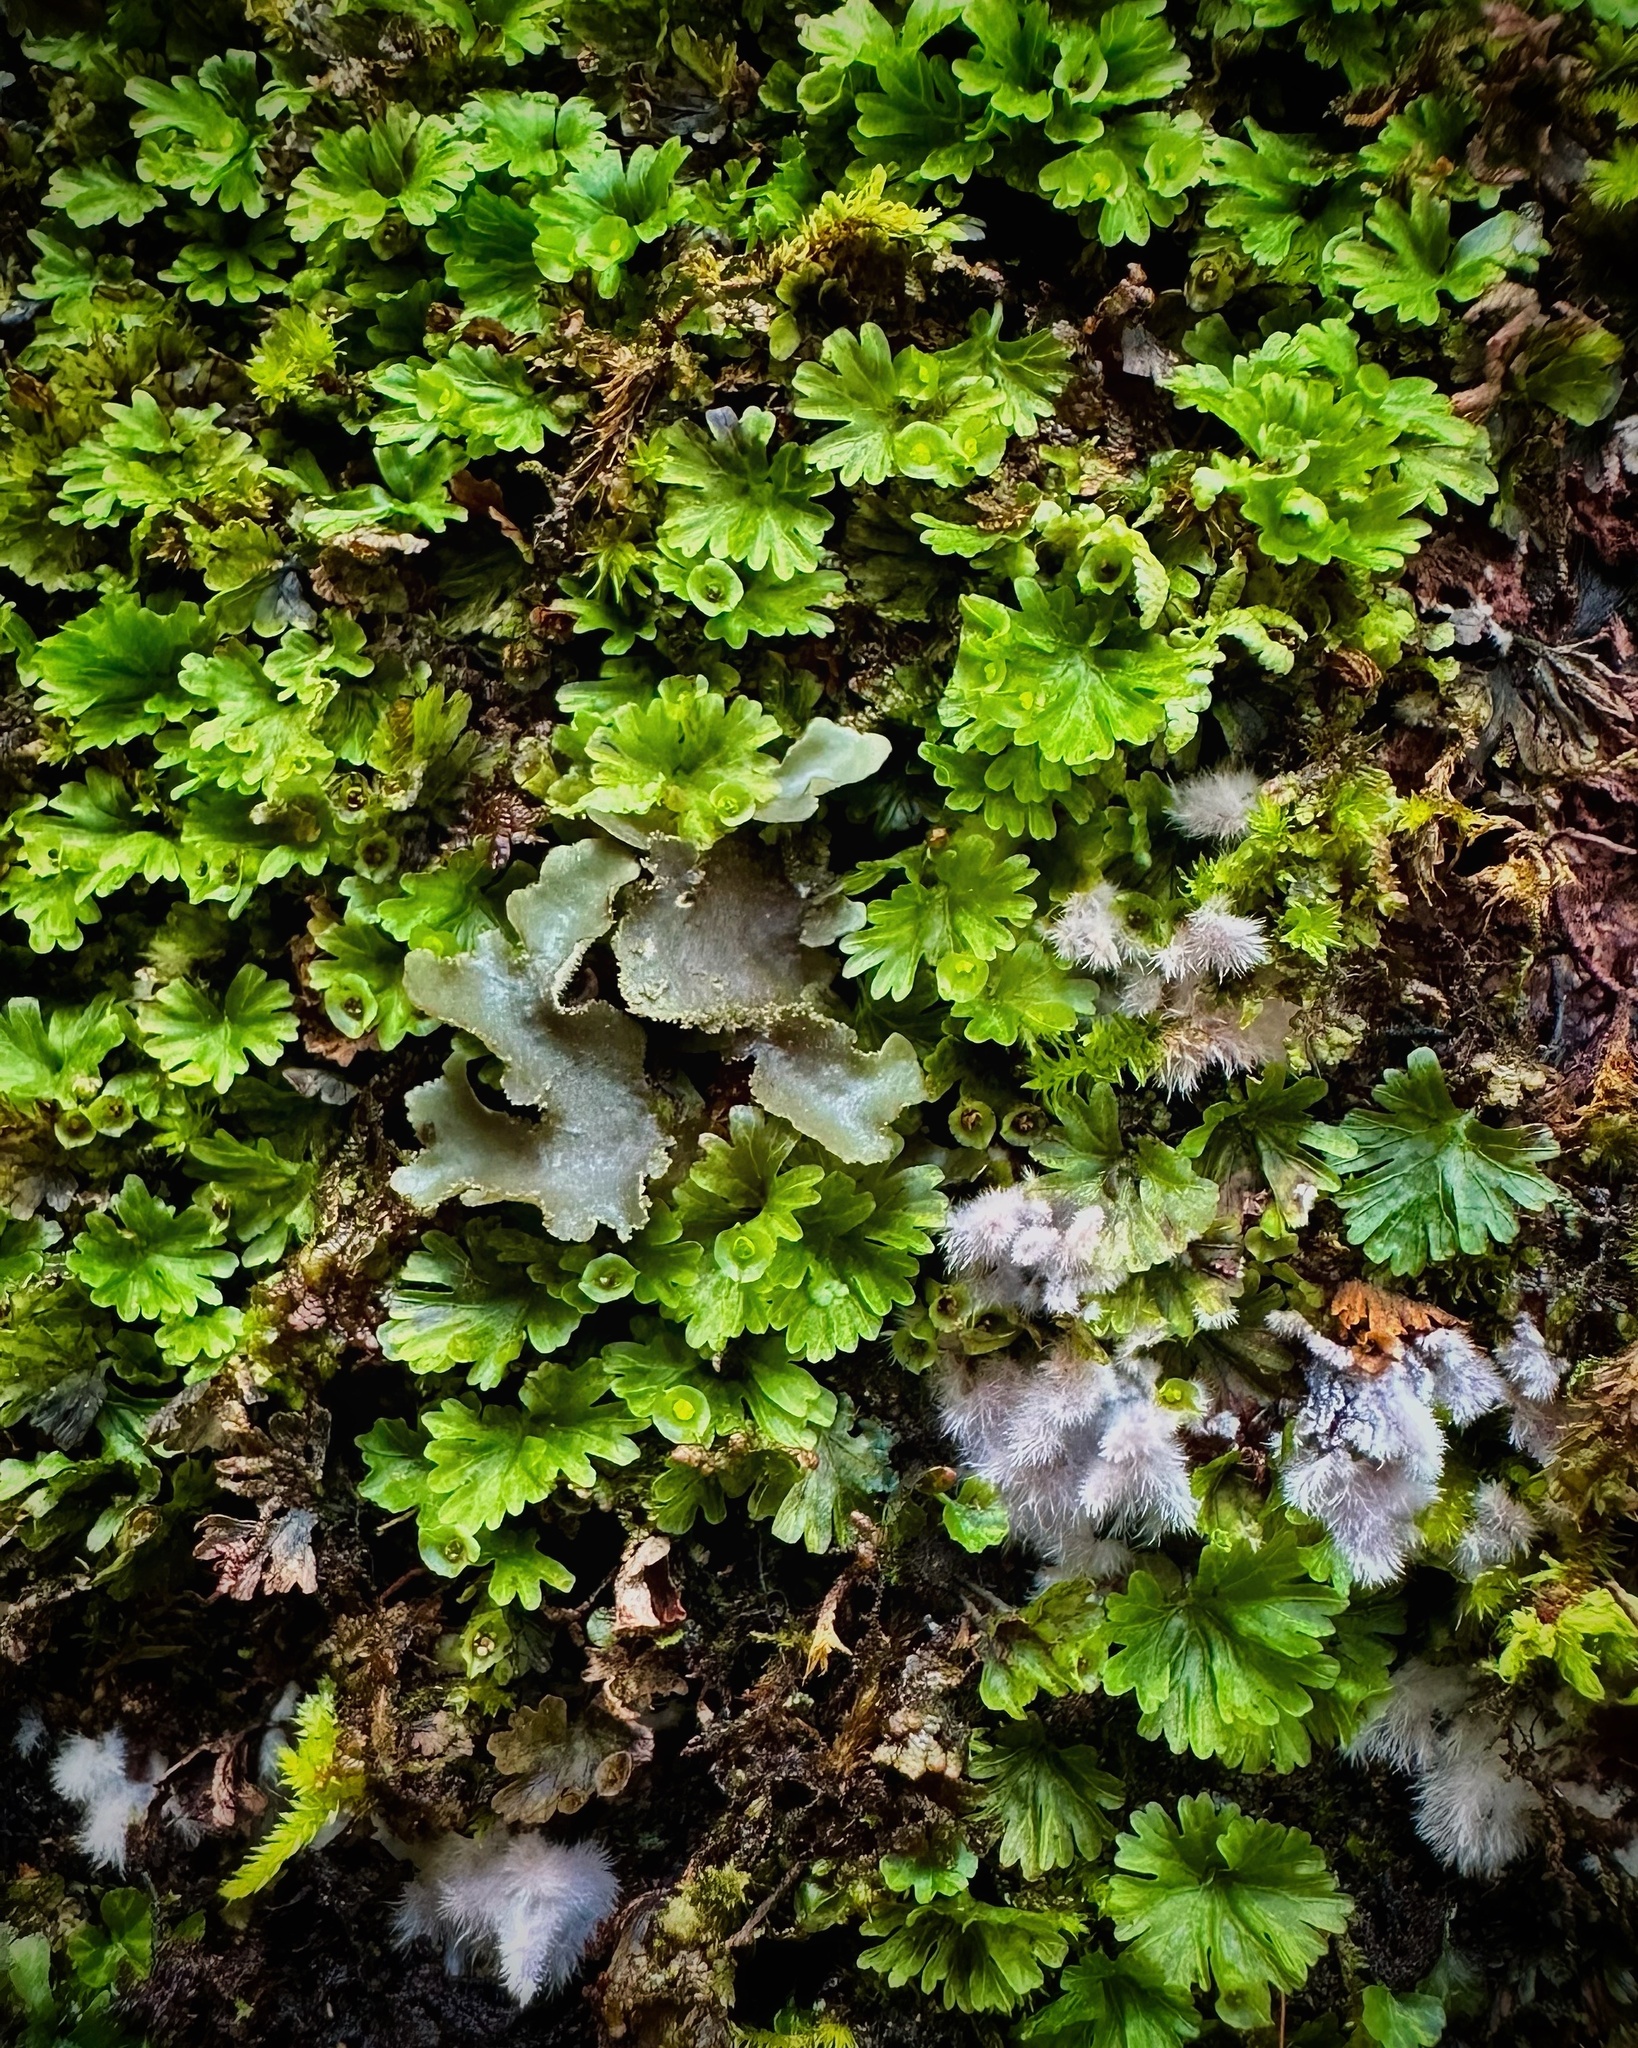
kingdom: Plantae
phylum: Tracheophyta
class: Polypodiopsida
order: Hymenophyllales
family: Hymenophyllaceae
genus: Crepidomanes
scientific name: Crepidomanes parvulum
